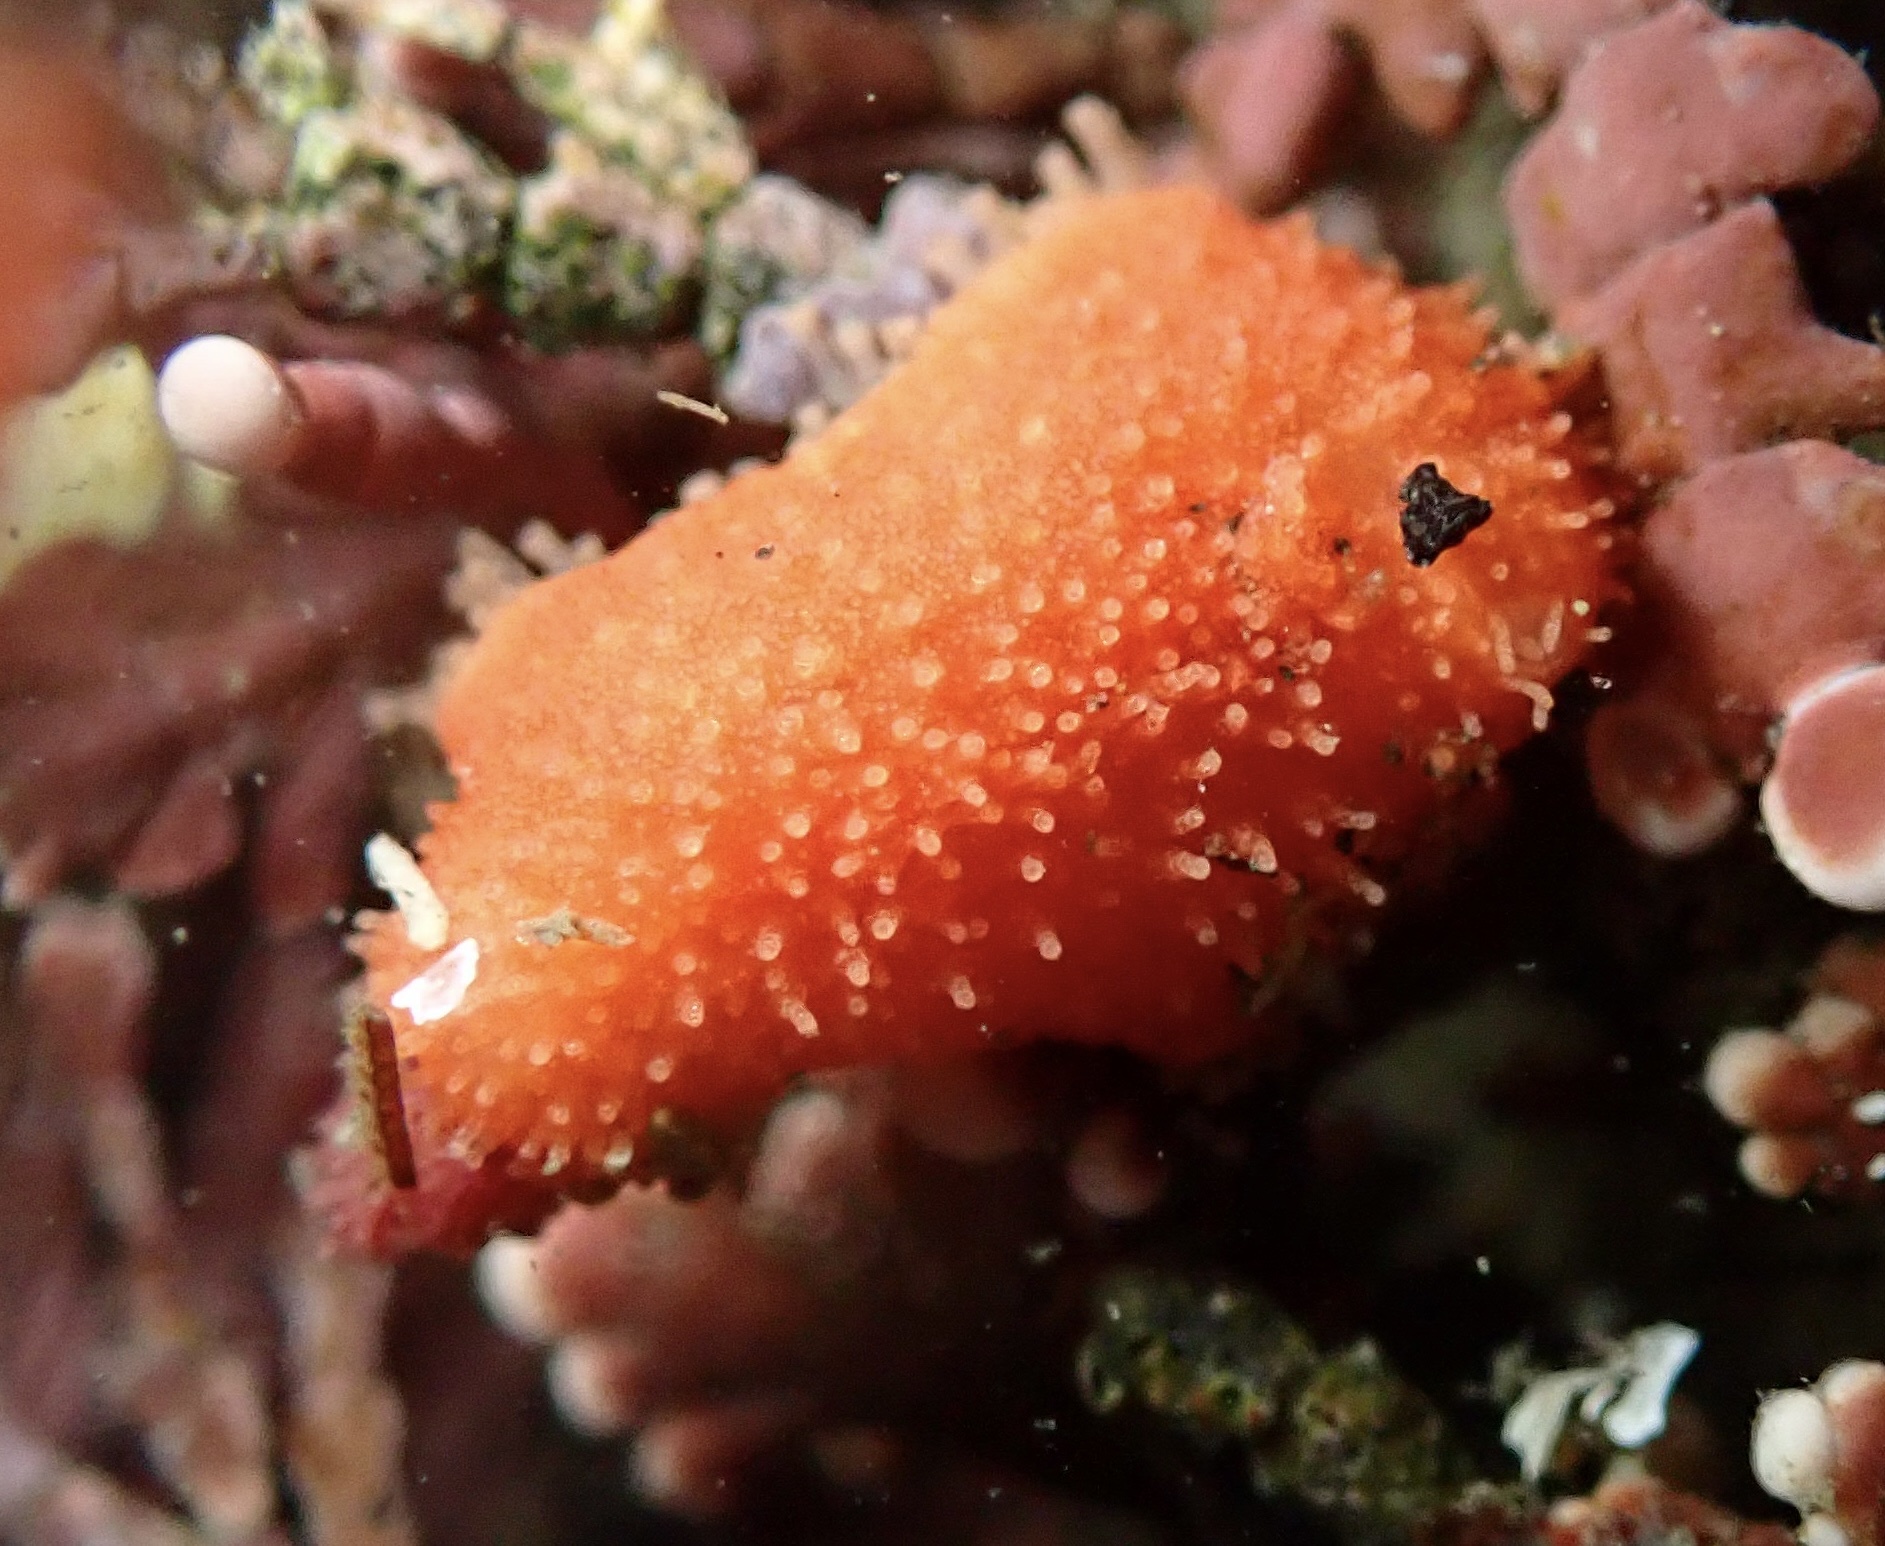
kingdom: Animalia
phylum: Echinodermata
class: Holothuroidea
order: Dendrochirotida
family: Psolidae
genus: Lissothuria
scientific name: Lissothuria nutriens
